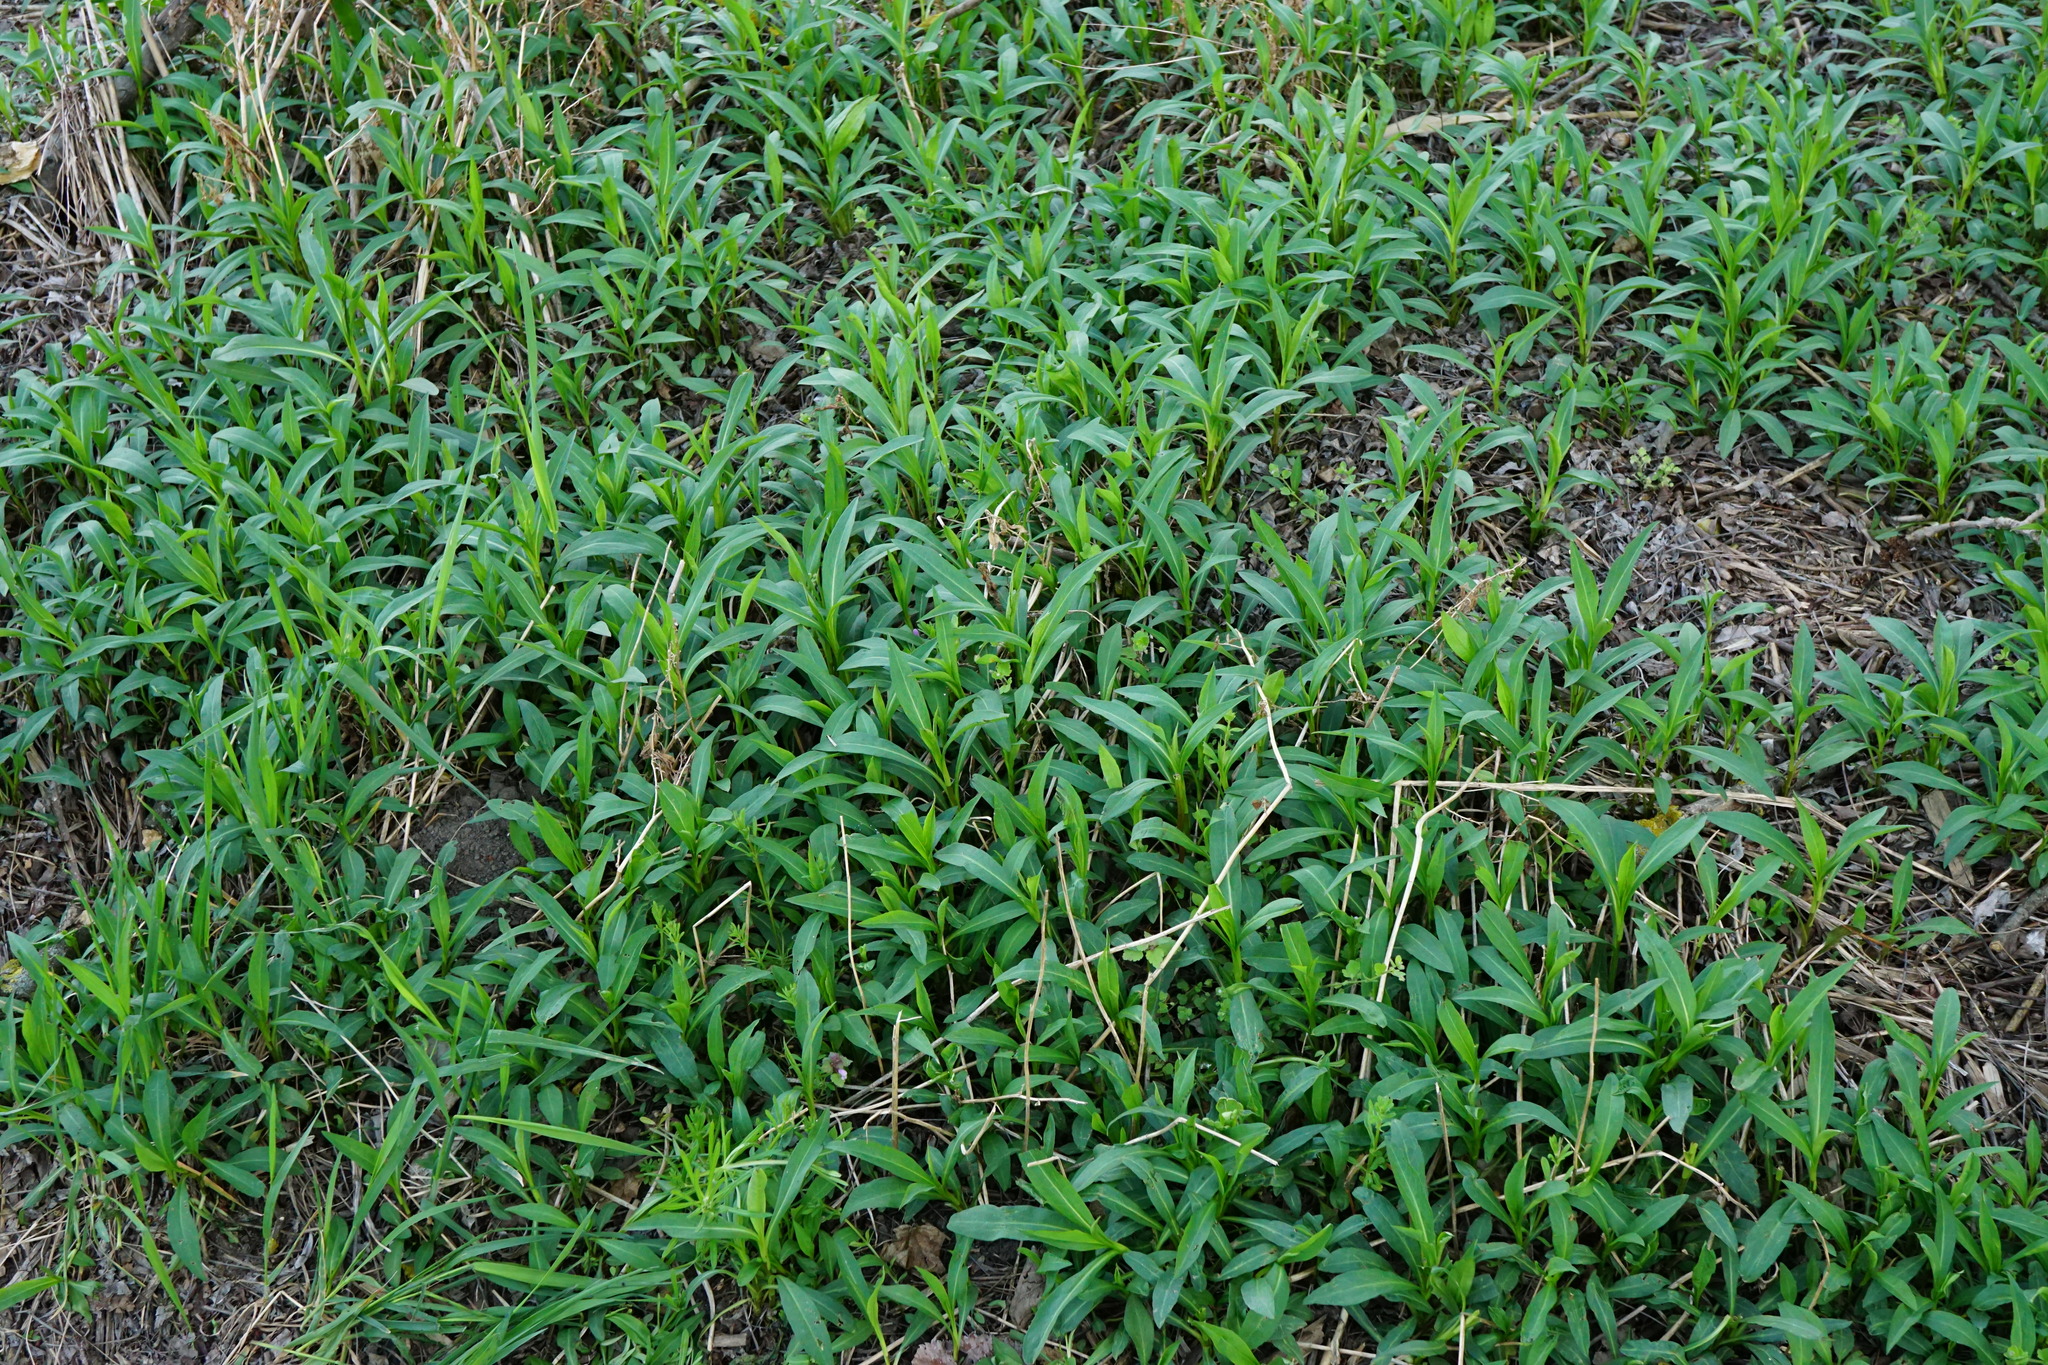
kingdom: Plantae
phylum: Tracheophyta
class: Magnoliopsida
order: Asterales
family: Asteraceae
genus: Symphyotrichum
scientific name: Symphyotrichum lanceolatum
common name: Panicled aster
